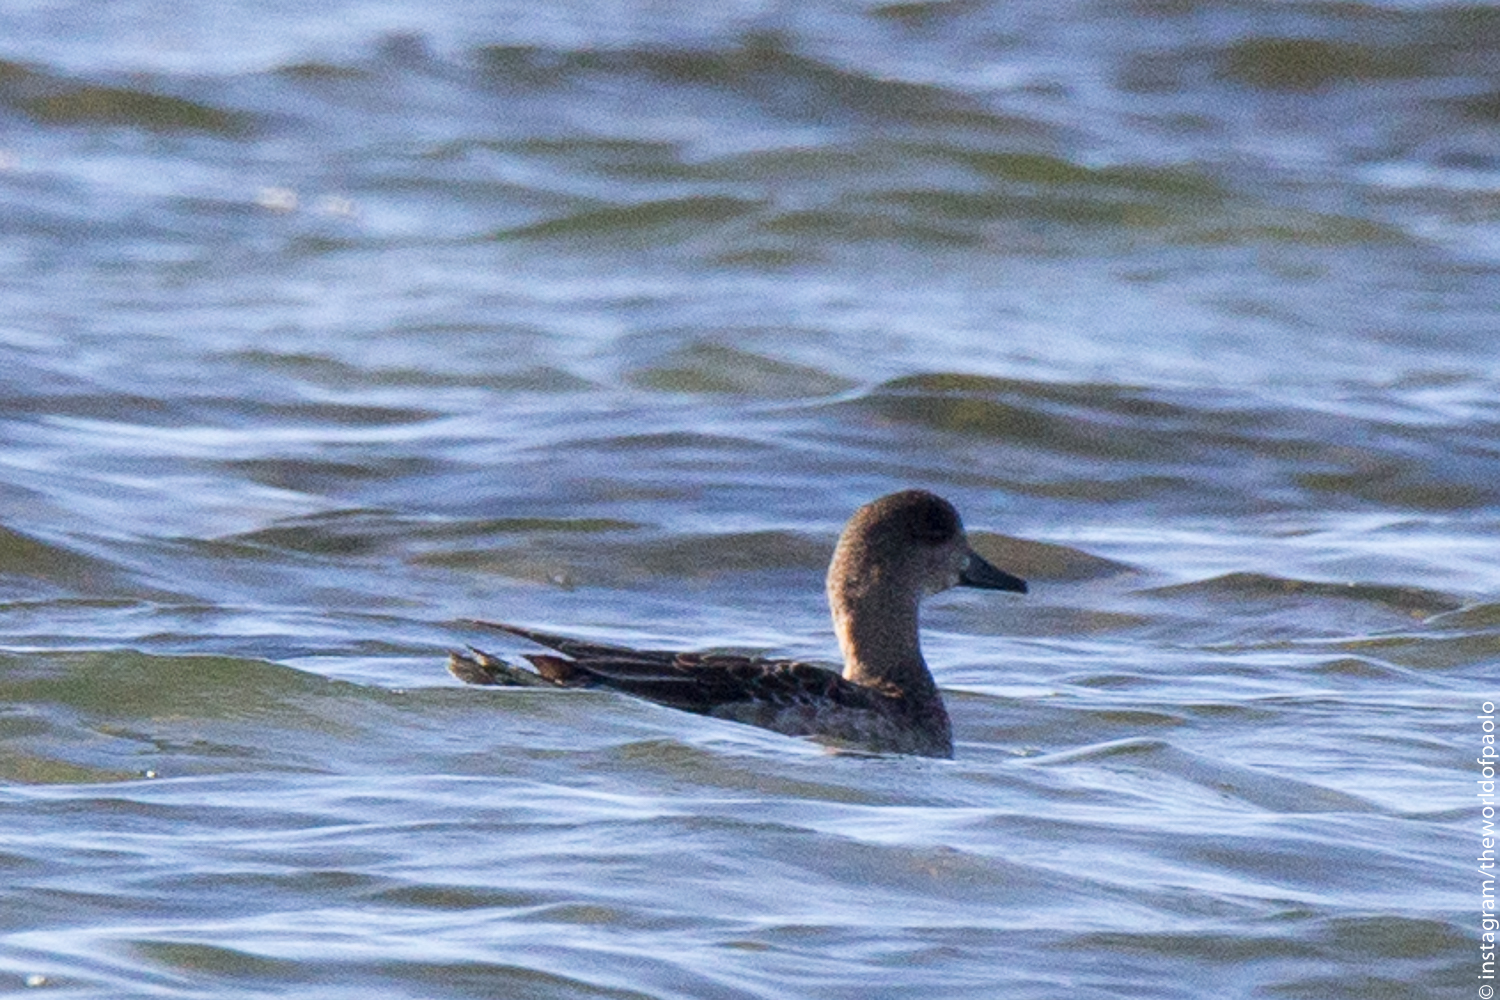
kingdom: Animalia
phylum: Chordata
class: Aves
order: Anseriformes
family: Anatidae
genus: Mareca
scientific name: Mareca penelope
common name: Eurasian wigeon
